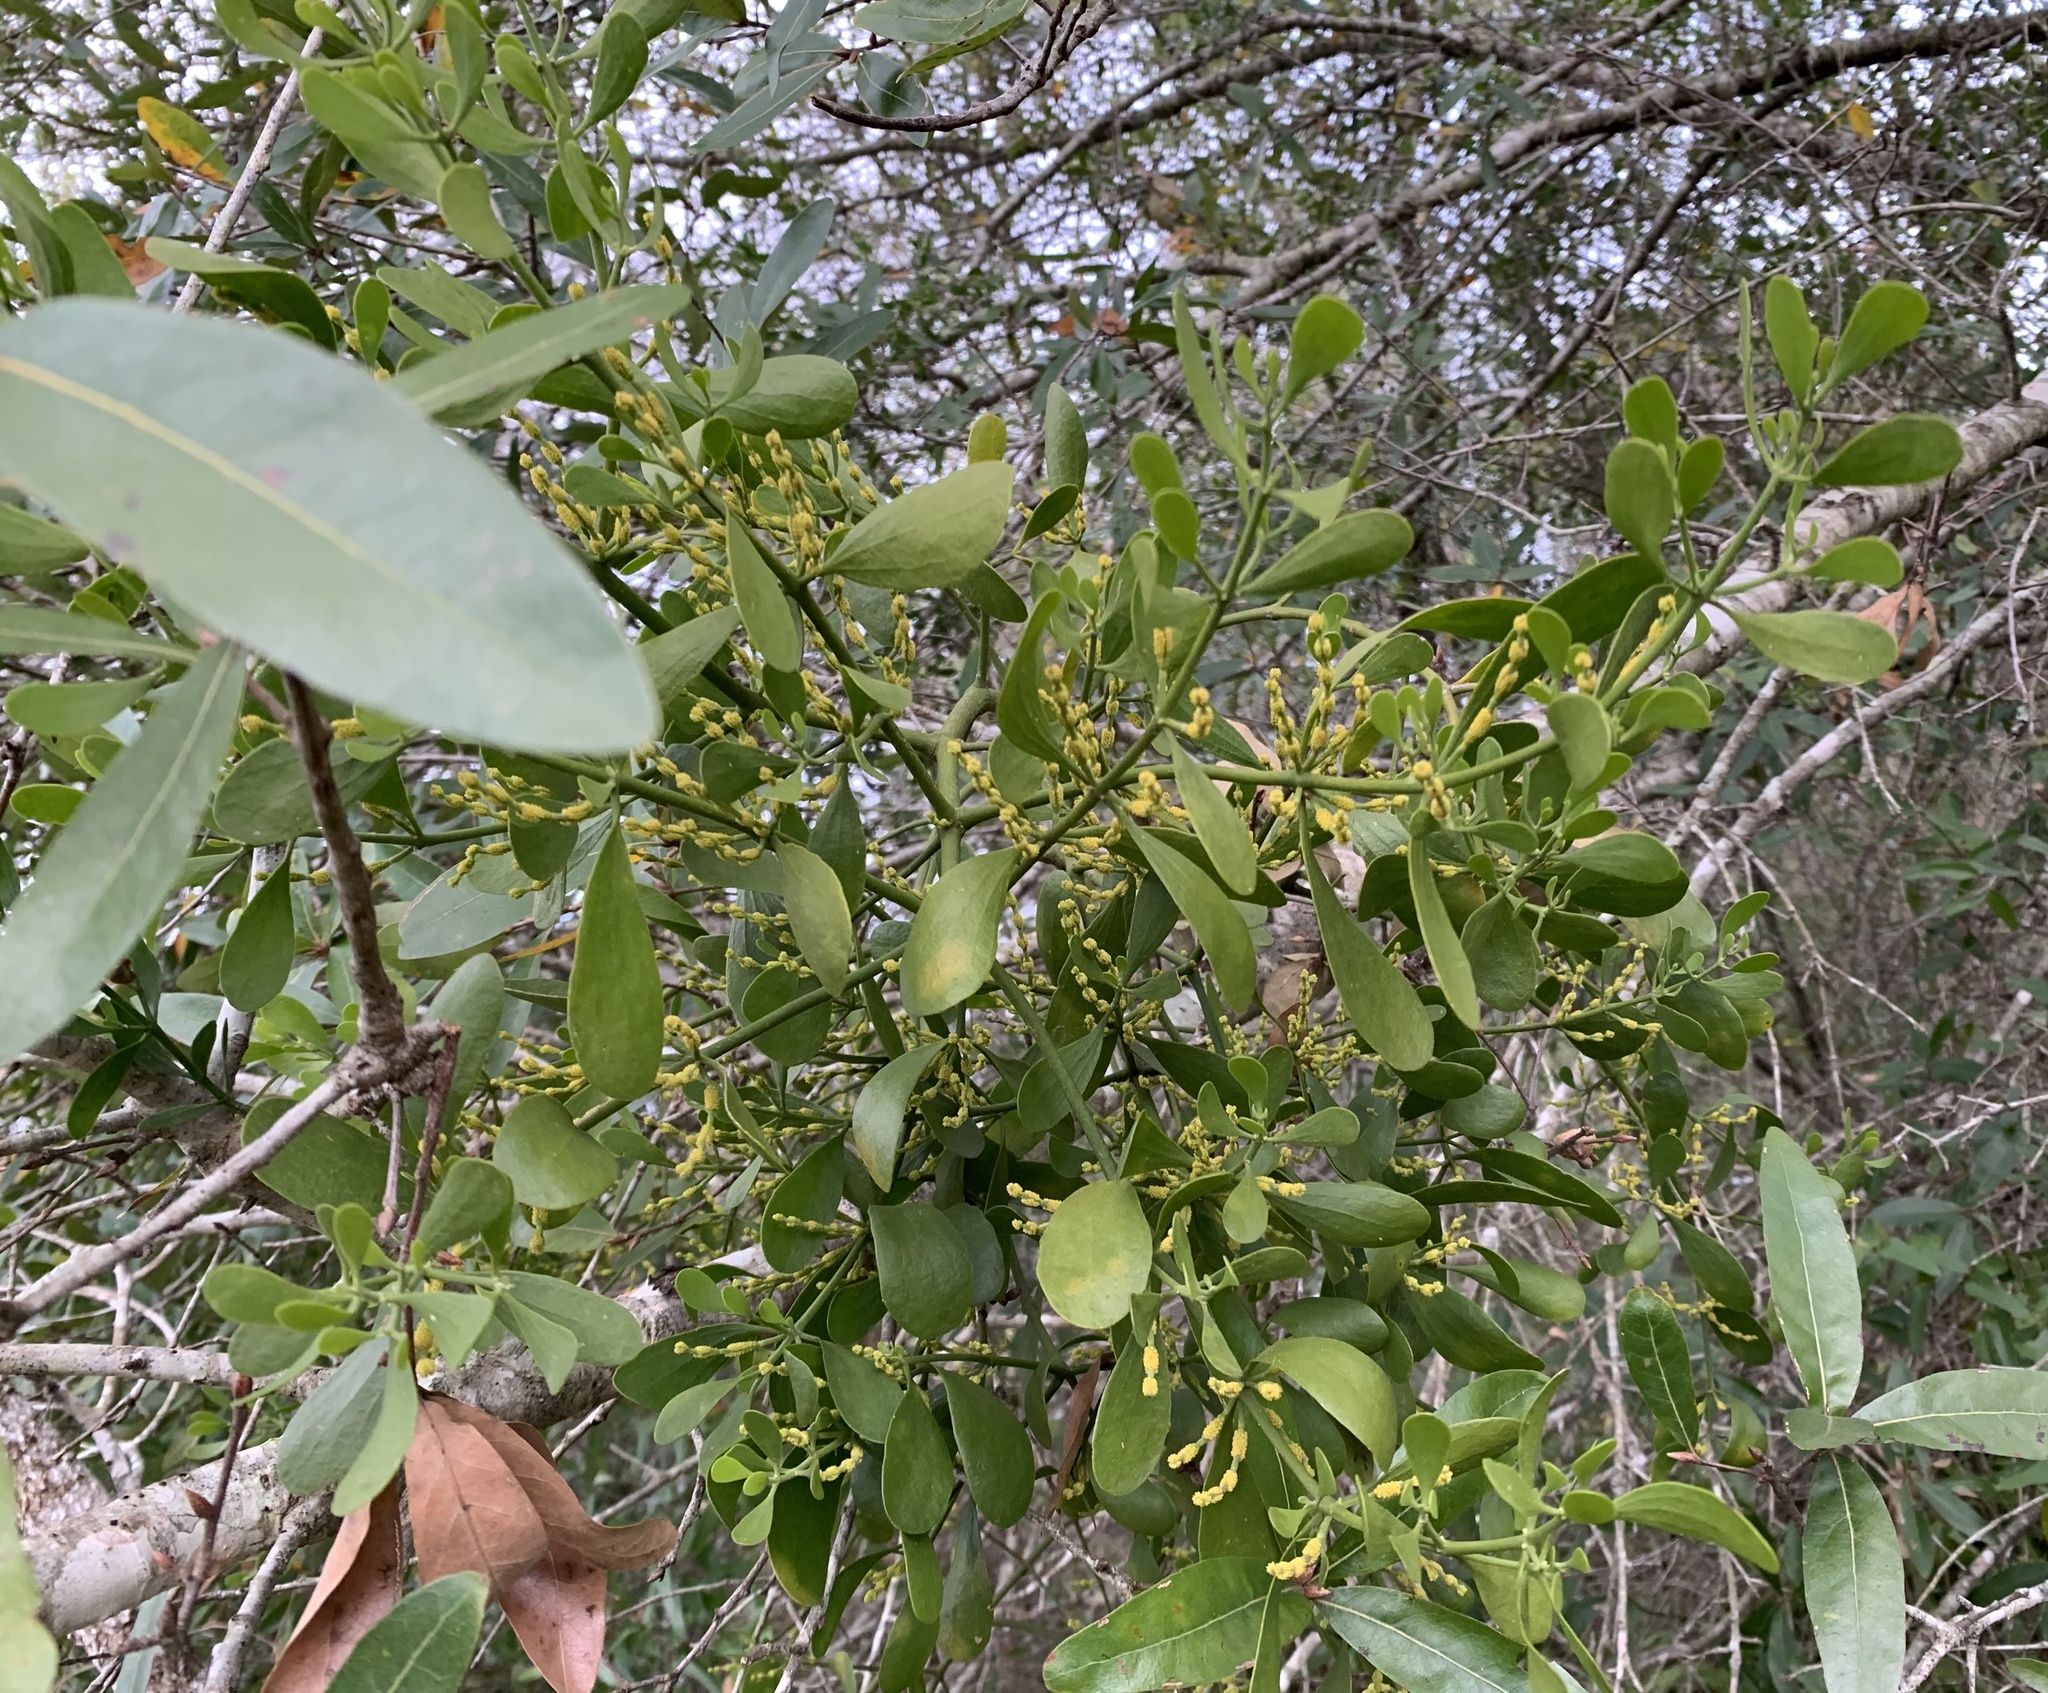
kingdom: Plantae
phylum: Tracheophyta
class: Magnoliopsida
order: Santalales
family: Viscaceae
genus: Phoradendron
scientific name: Phoradendron leucarpum
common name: Pacific mistletoe
